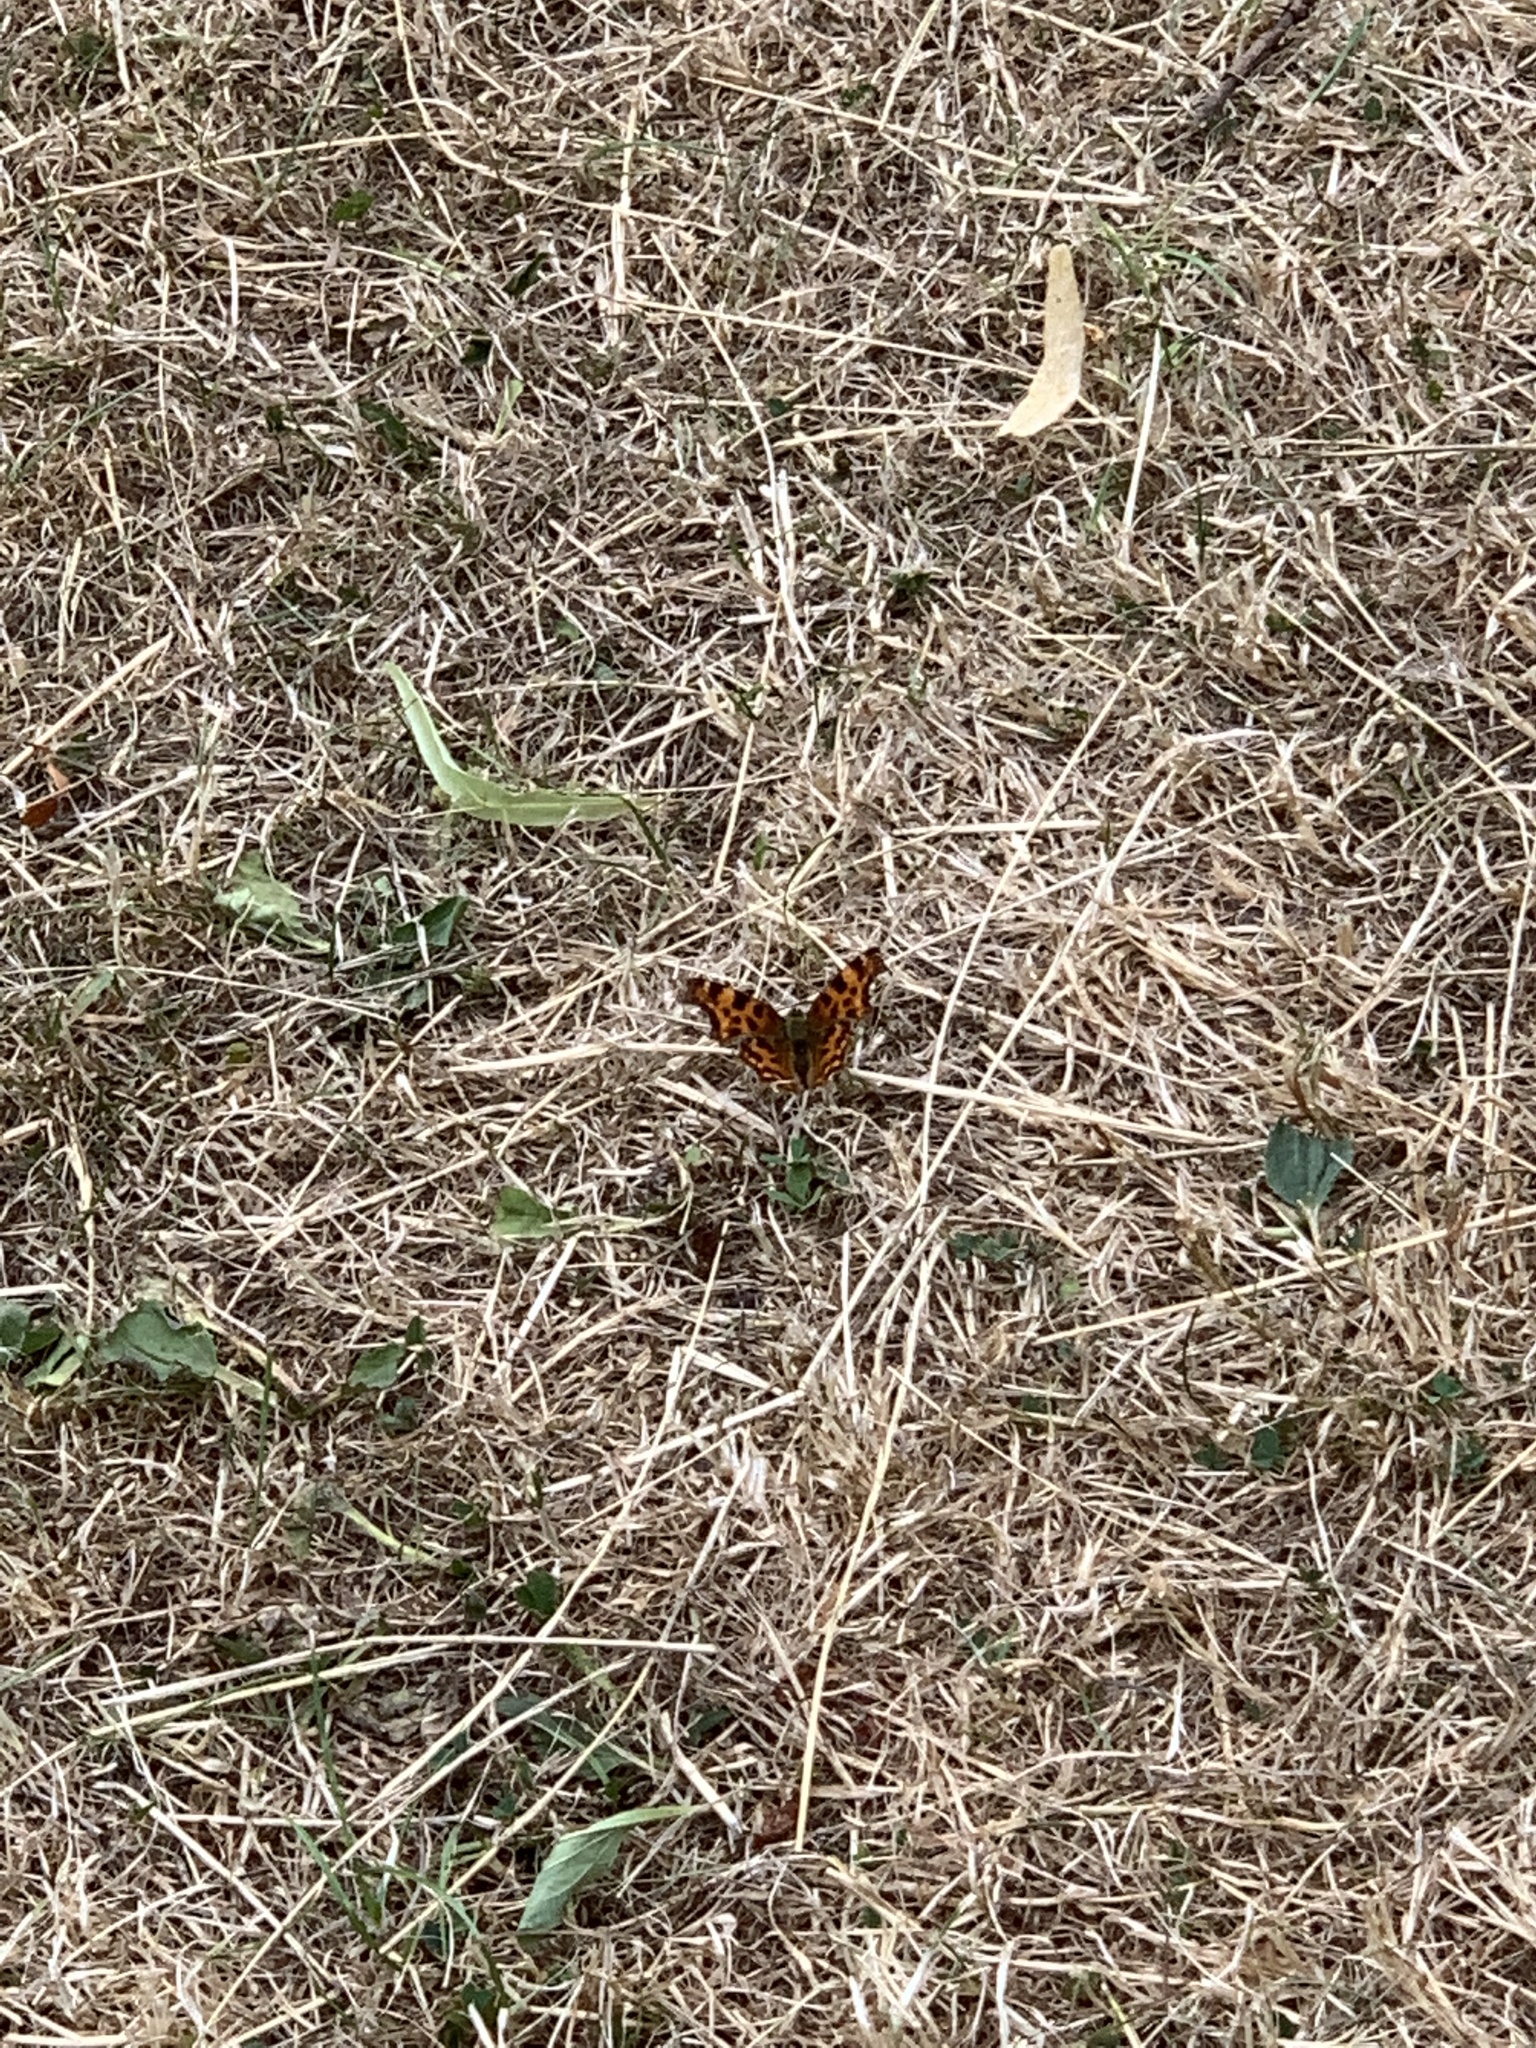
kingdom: Animalia
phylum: Arthropoda
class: Insecta
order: Lepidoptera
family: Nymphalidae
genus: Polygonia
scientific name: Polygonia c-album
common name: Comma
